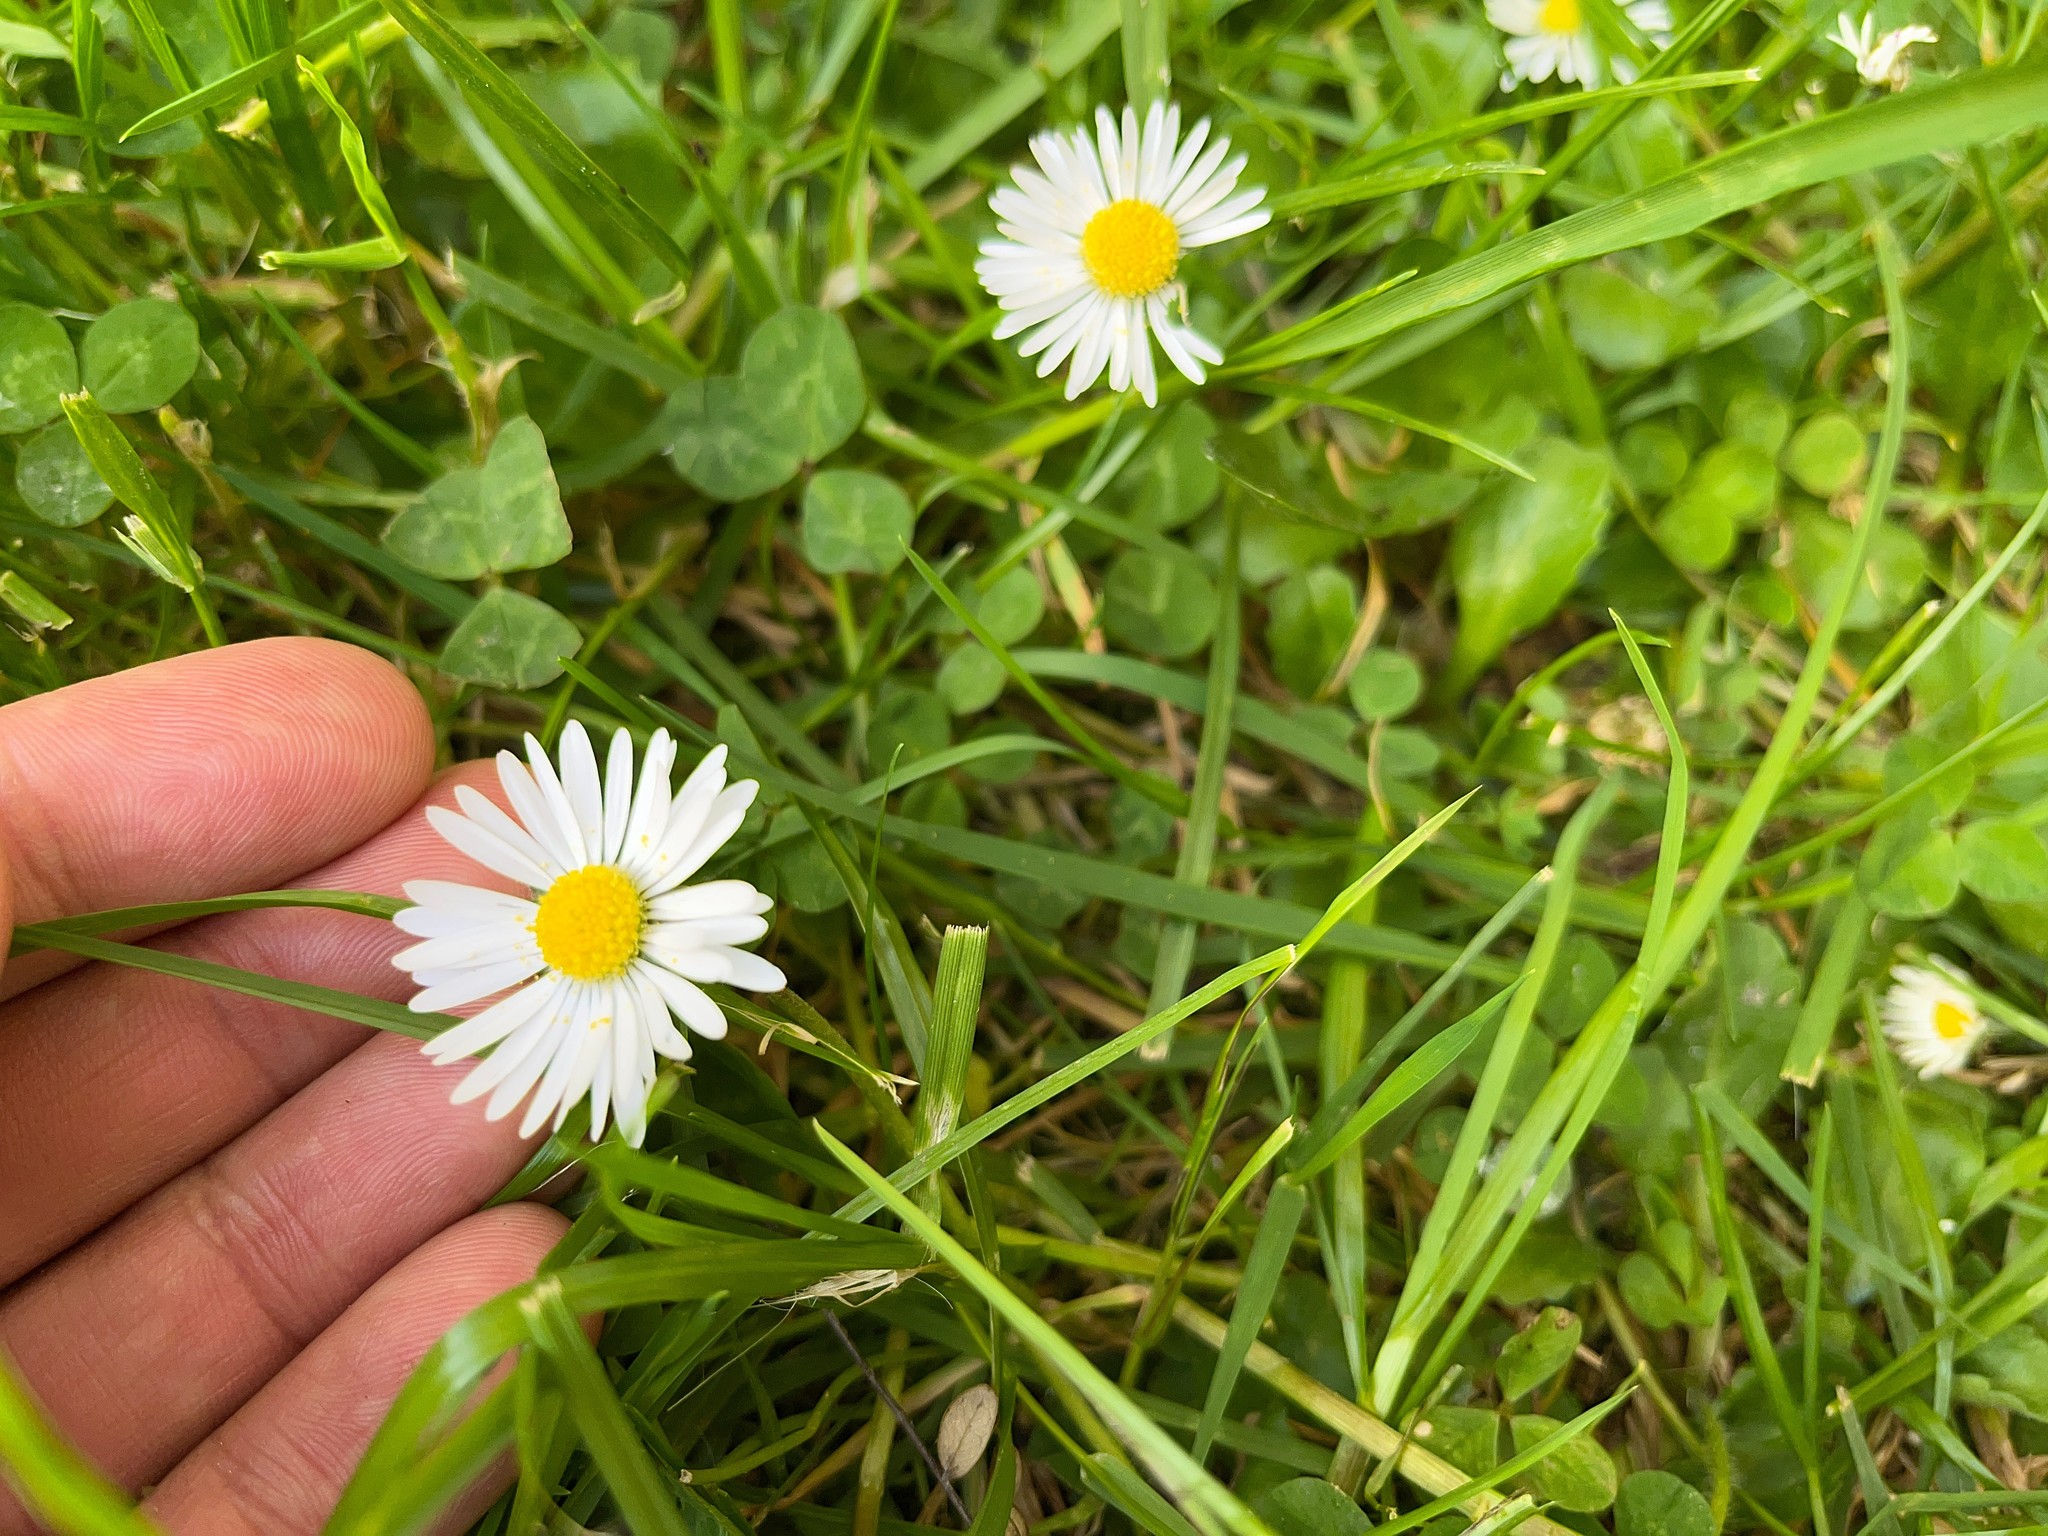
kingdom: Plantae
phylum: Tracheophyta
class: Magnoliopsida
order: Asterales
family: Asteraceae
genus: Bellis
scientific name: Bellis perennis
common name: Lawndaisy
